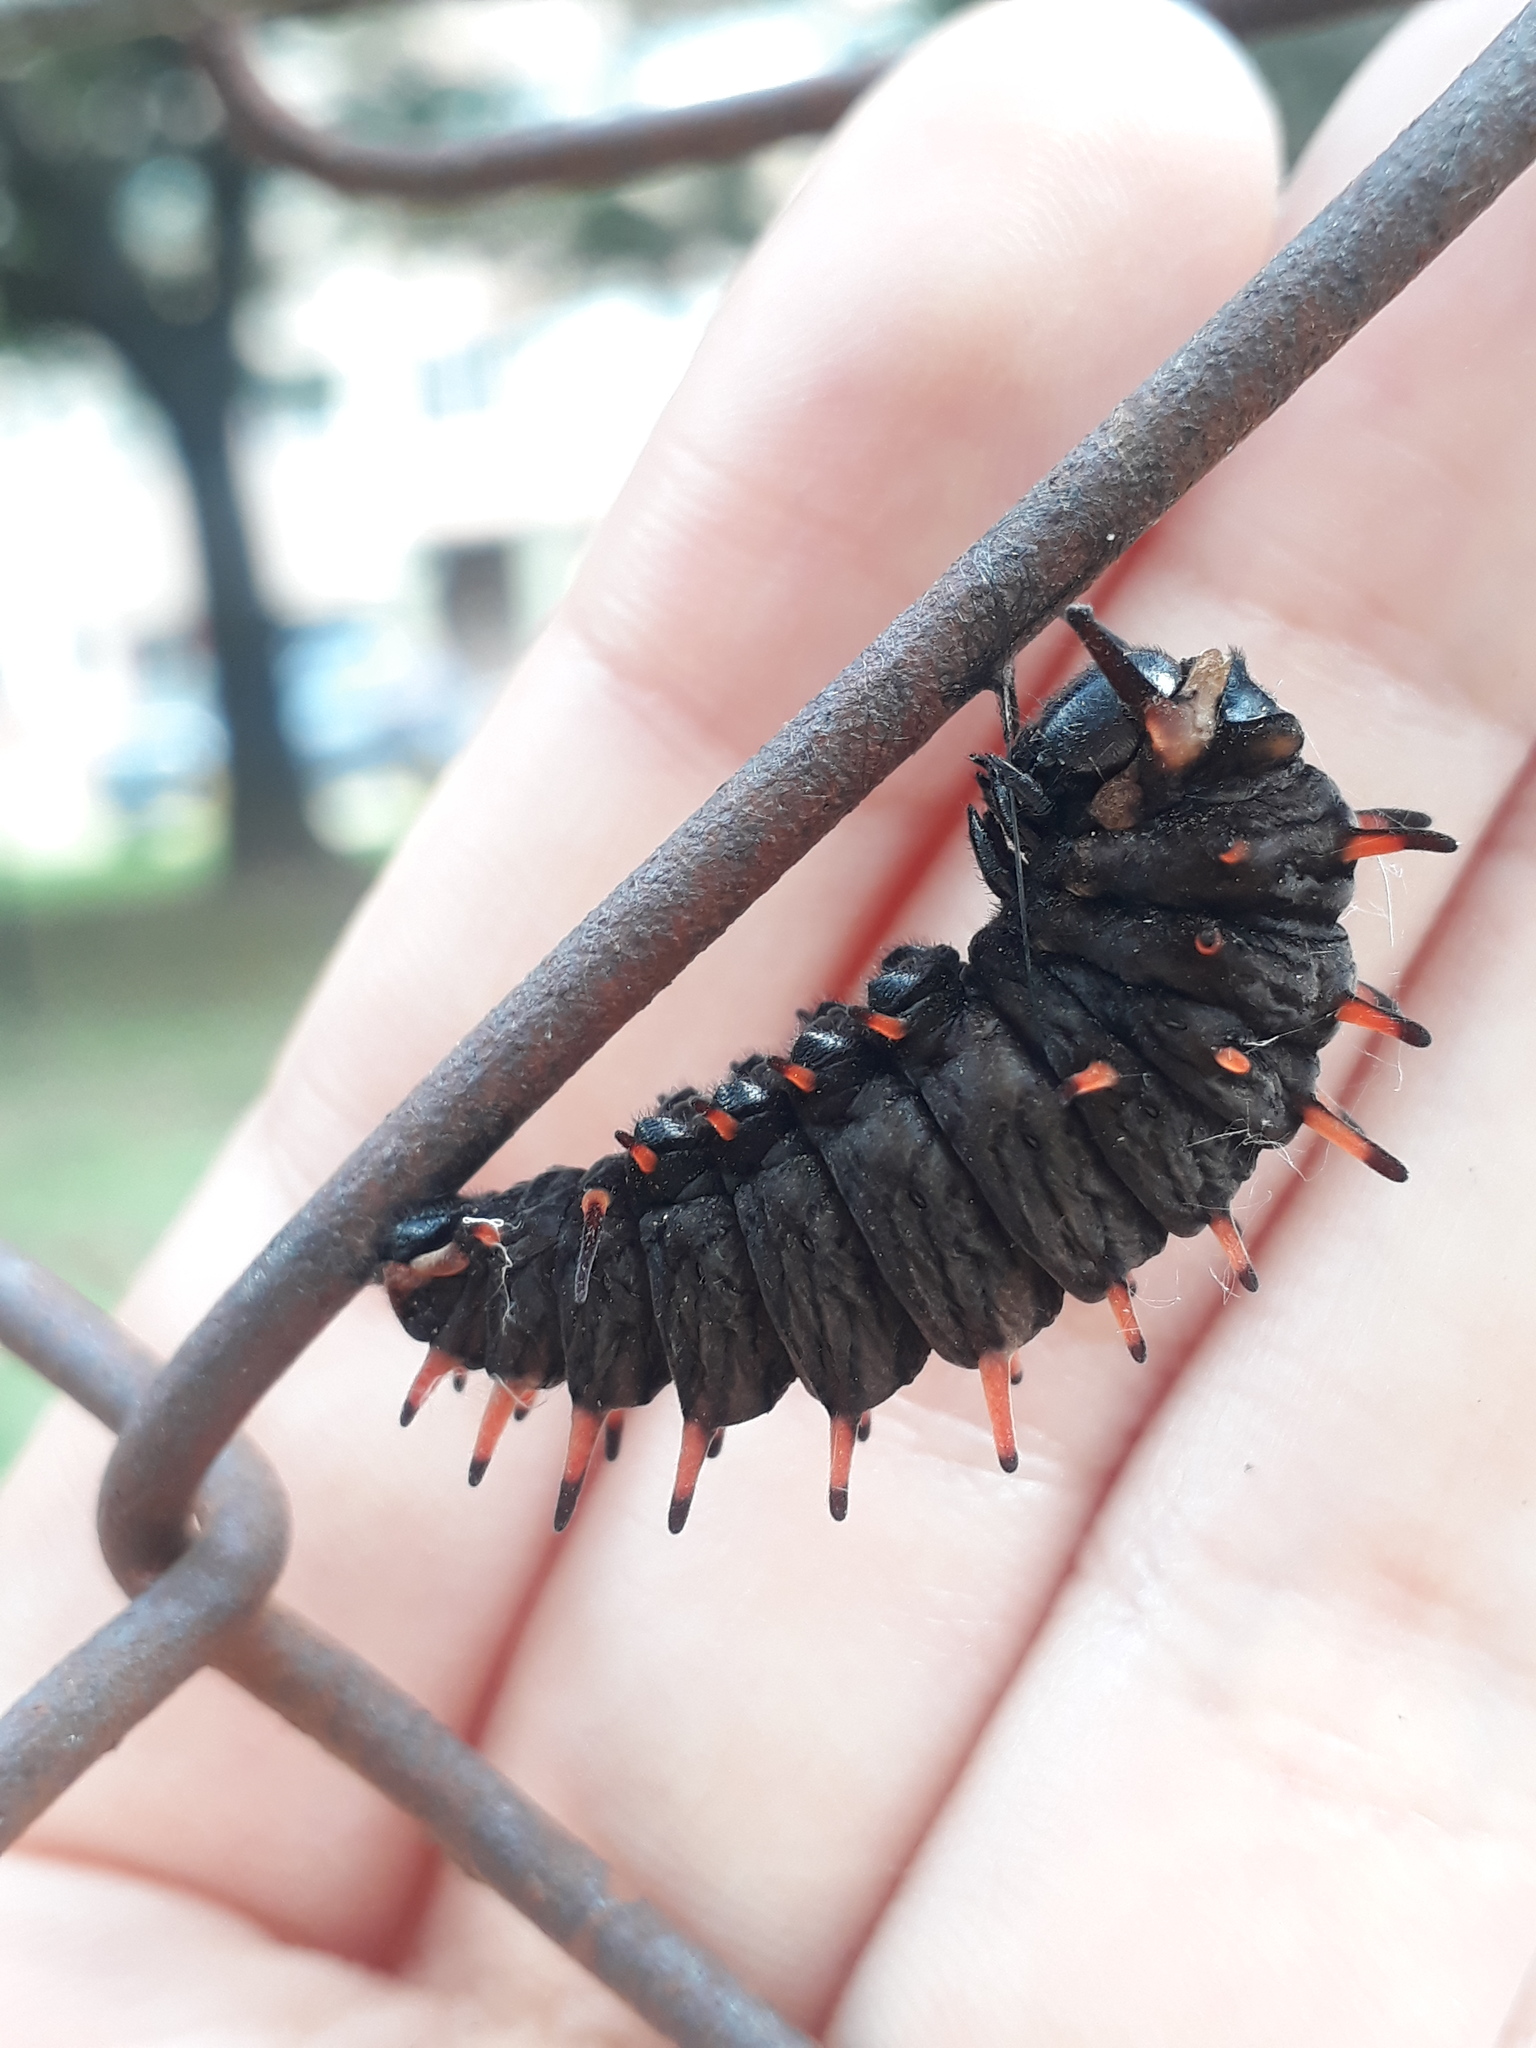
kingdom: Animalia
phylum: Arthropoda
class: Insecta
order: Lepidoptera
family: Papilionidae
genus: Battus
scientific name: Battus polydamas
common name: Polydamas swallowtail
